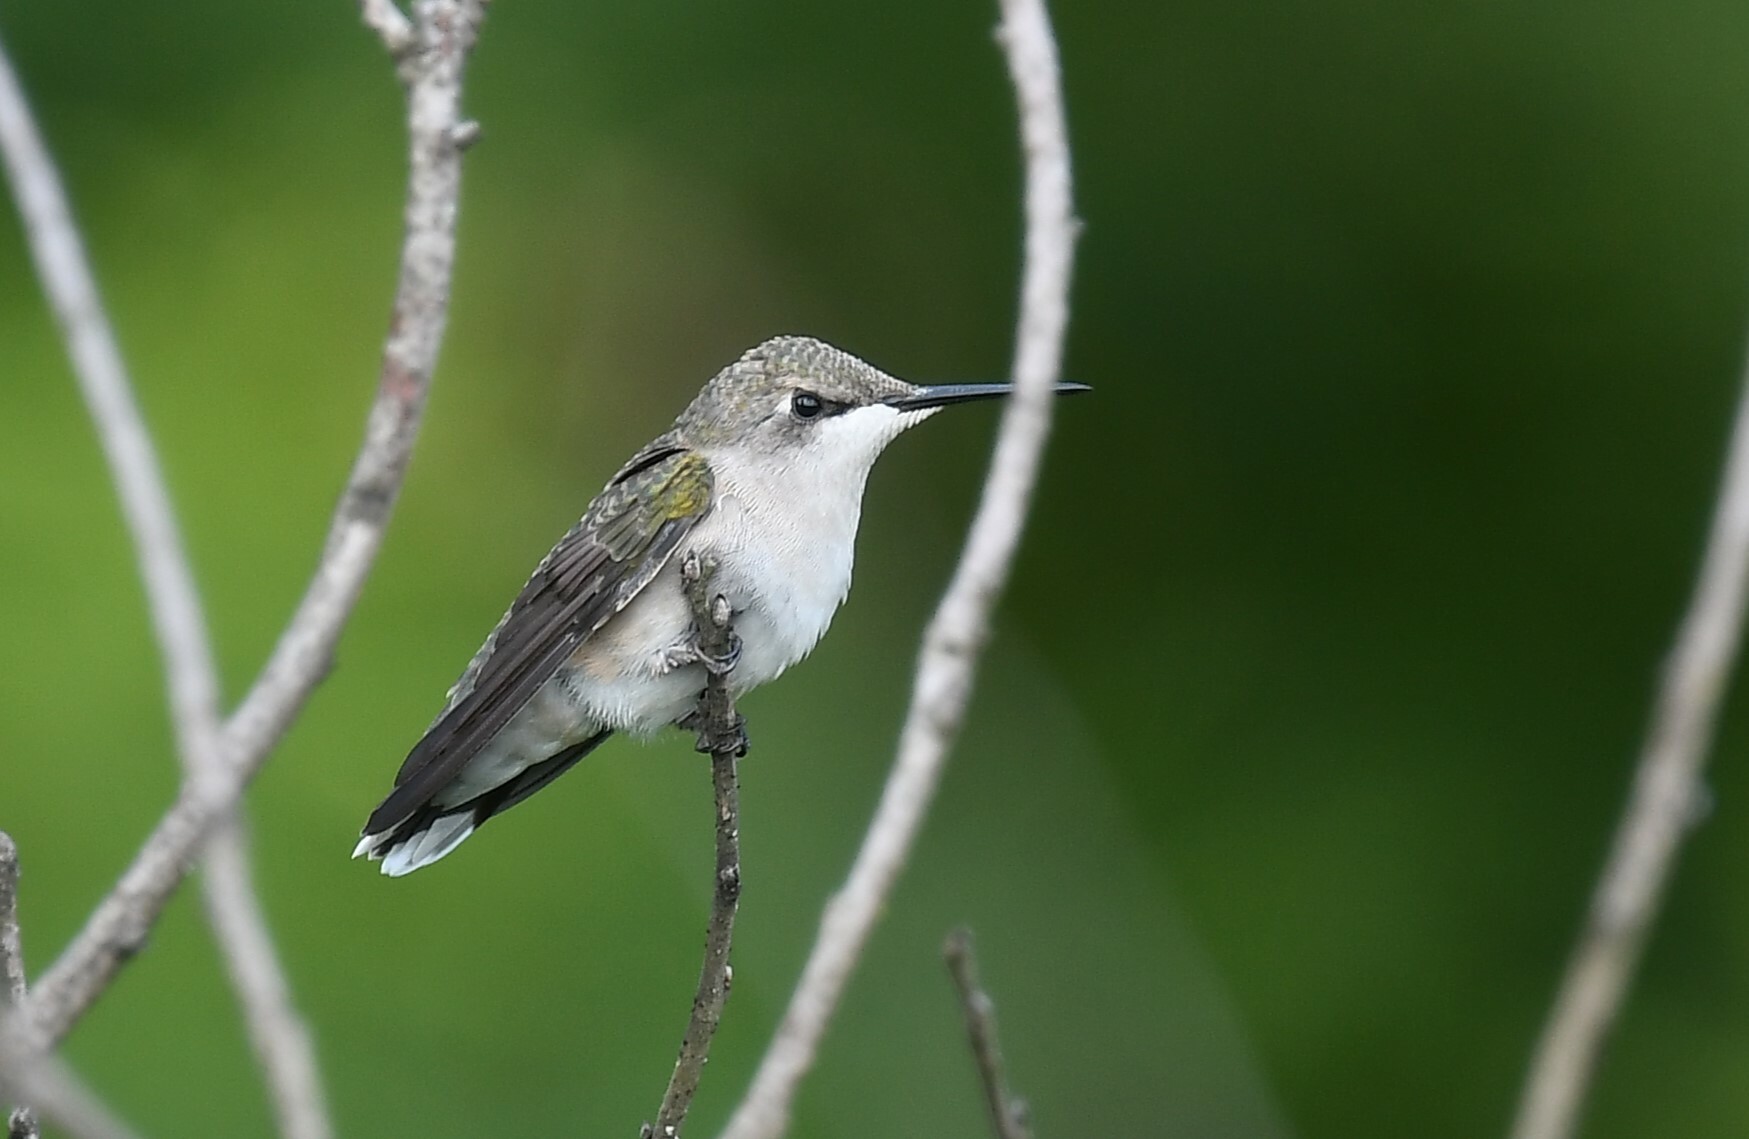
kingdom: Animalia
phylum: Chordata
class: Aves
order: Apodiformes
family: Trochilidae
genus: Archilochus
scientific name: Archilochus colubris
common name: Ruby-throated hummingbird
